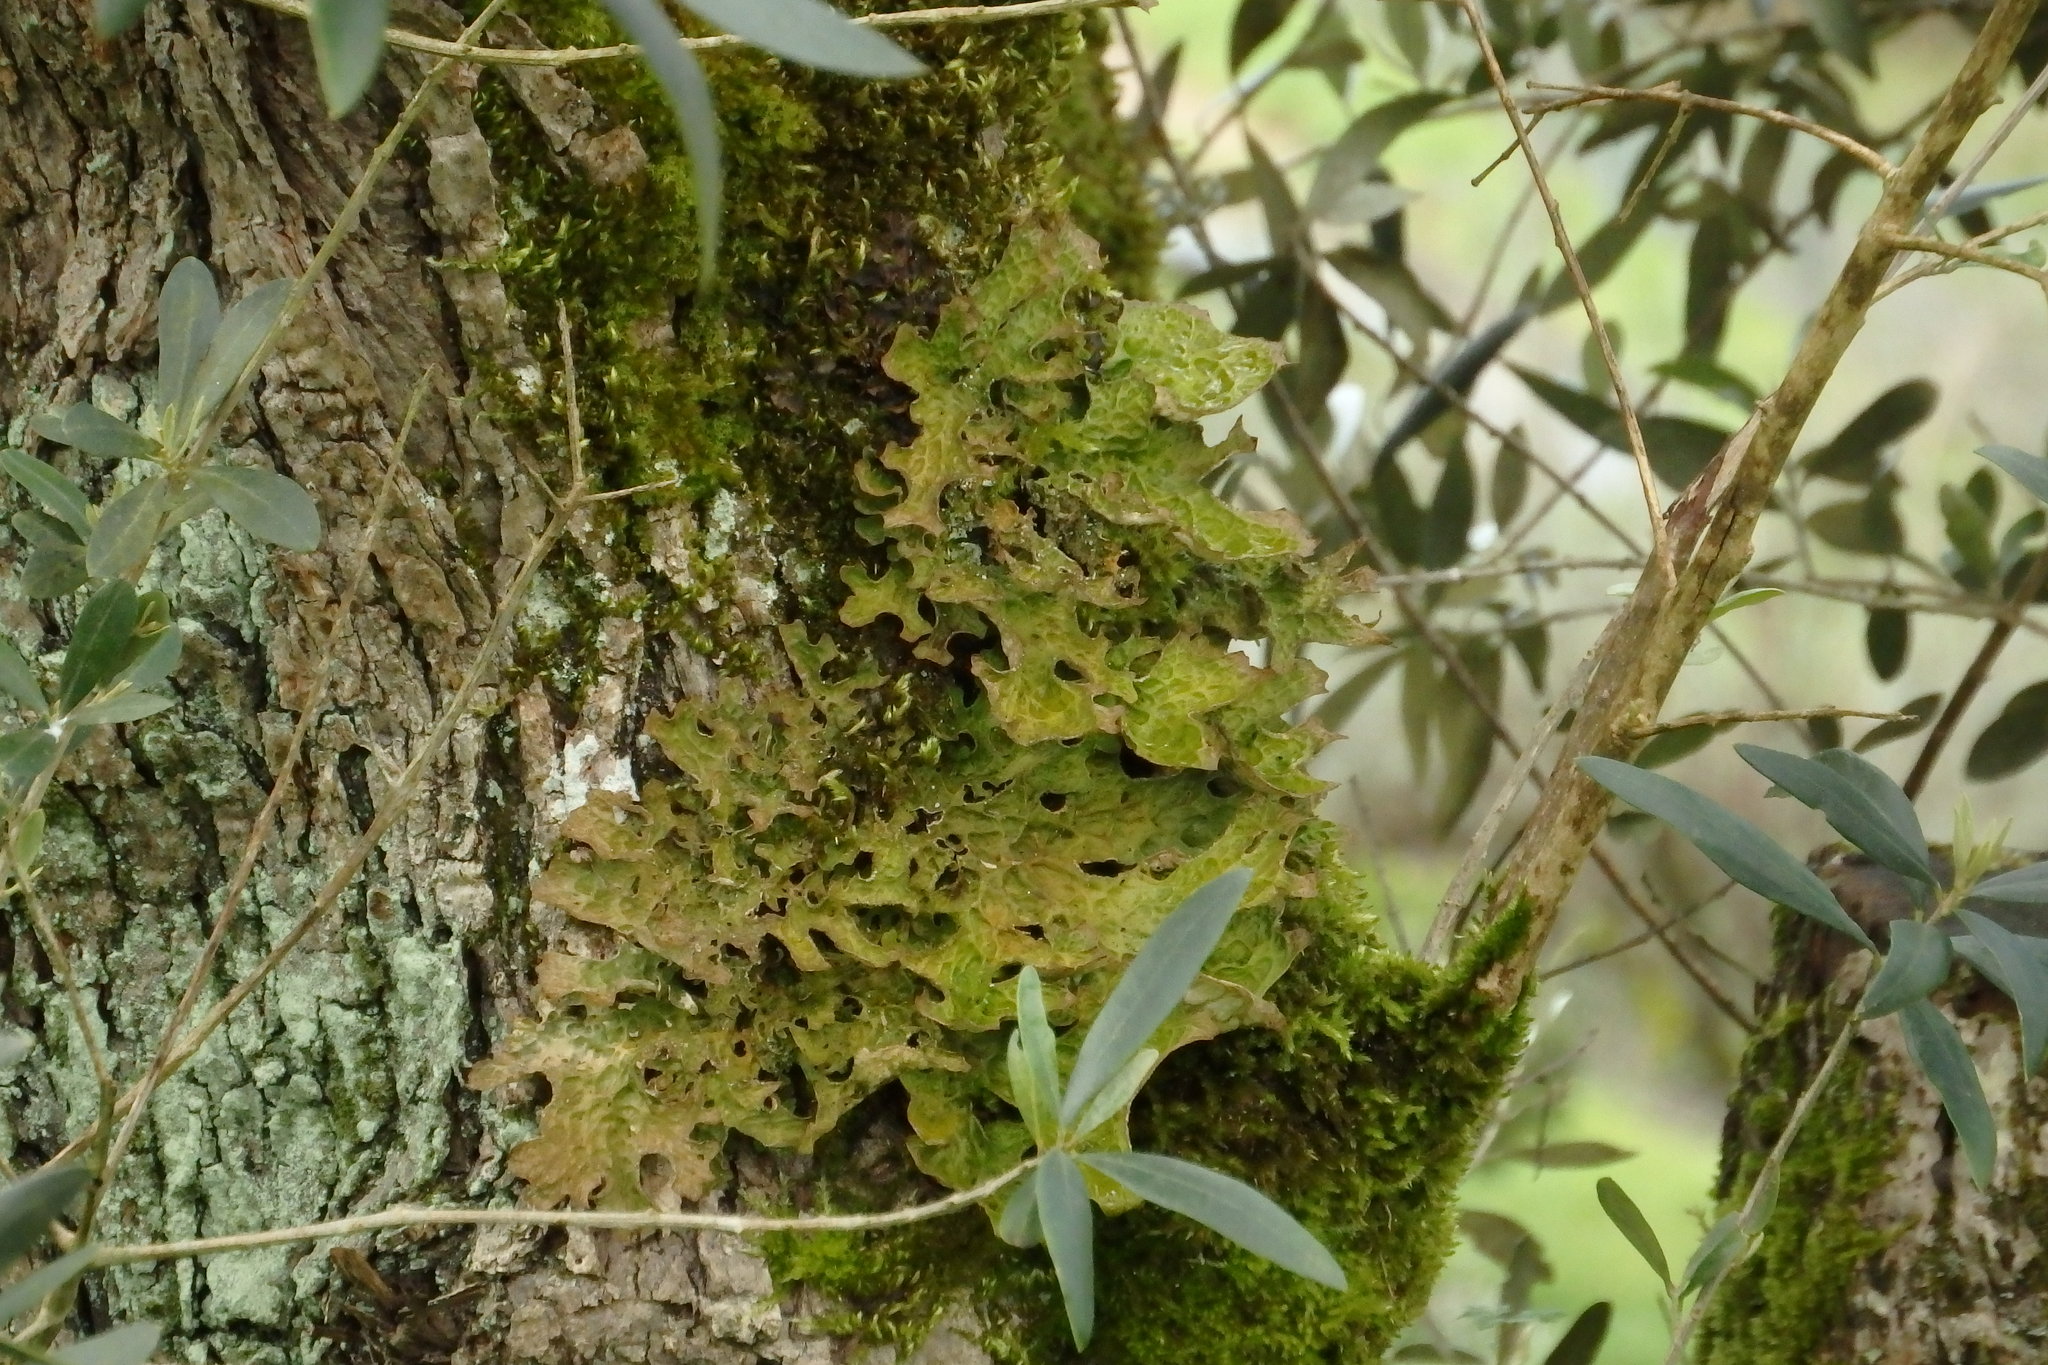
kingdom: Fungi
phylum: Ascomycota
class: Lecanoromycetes
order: Peltigerales
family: Lobariaceae
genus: Lobaria
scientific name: Lobaria pulmonaria
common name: Lungwort
